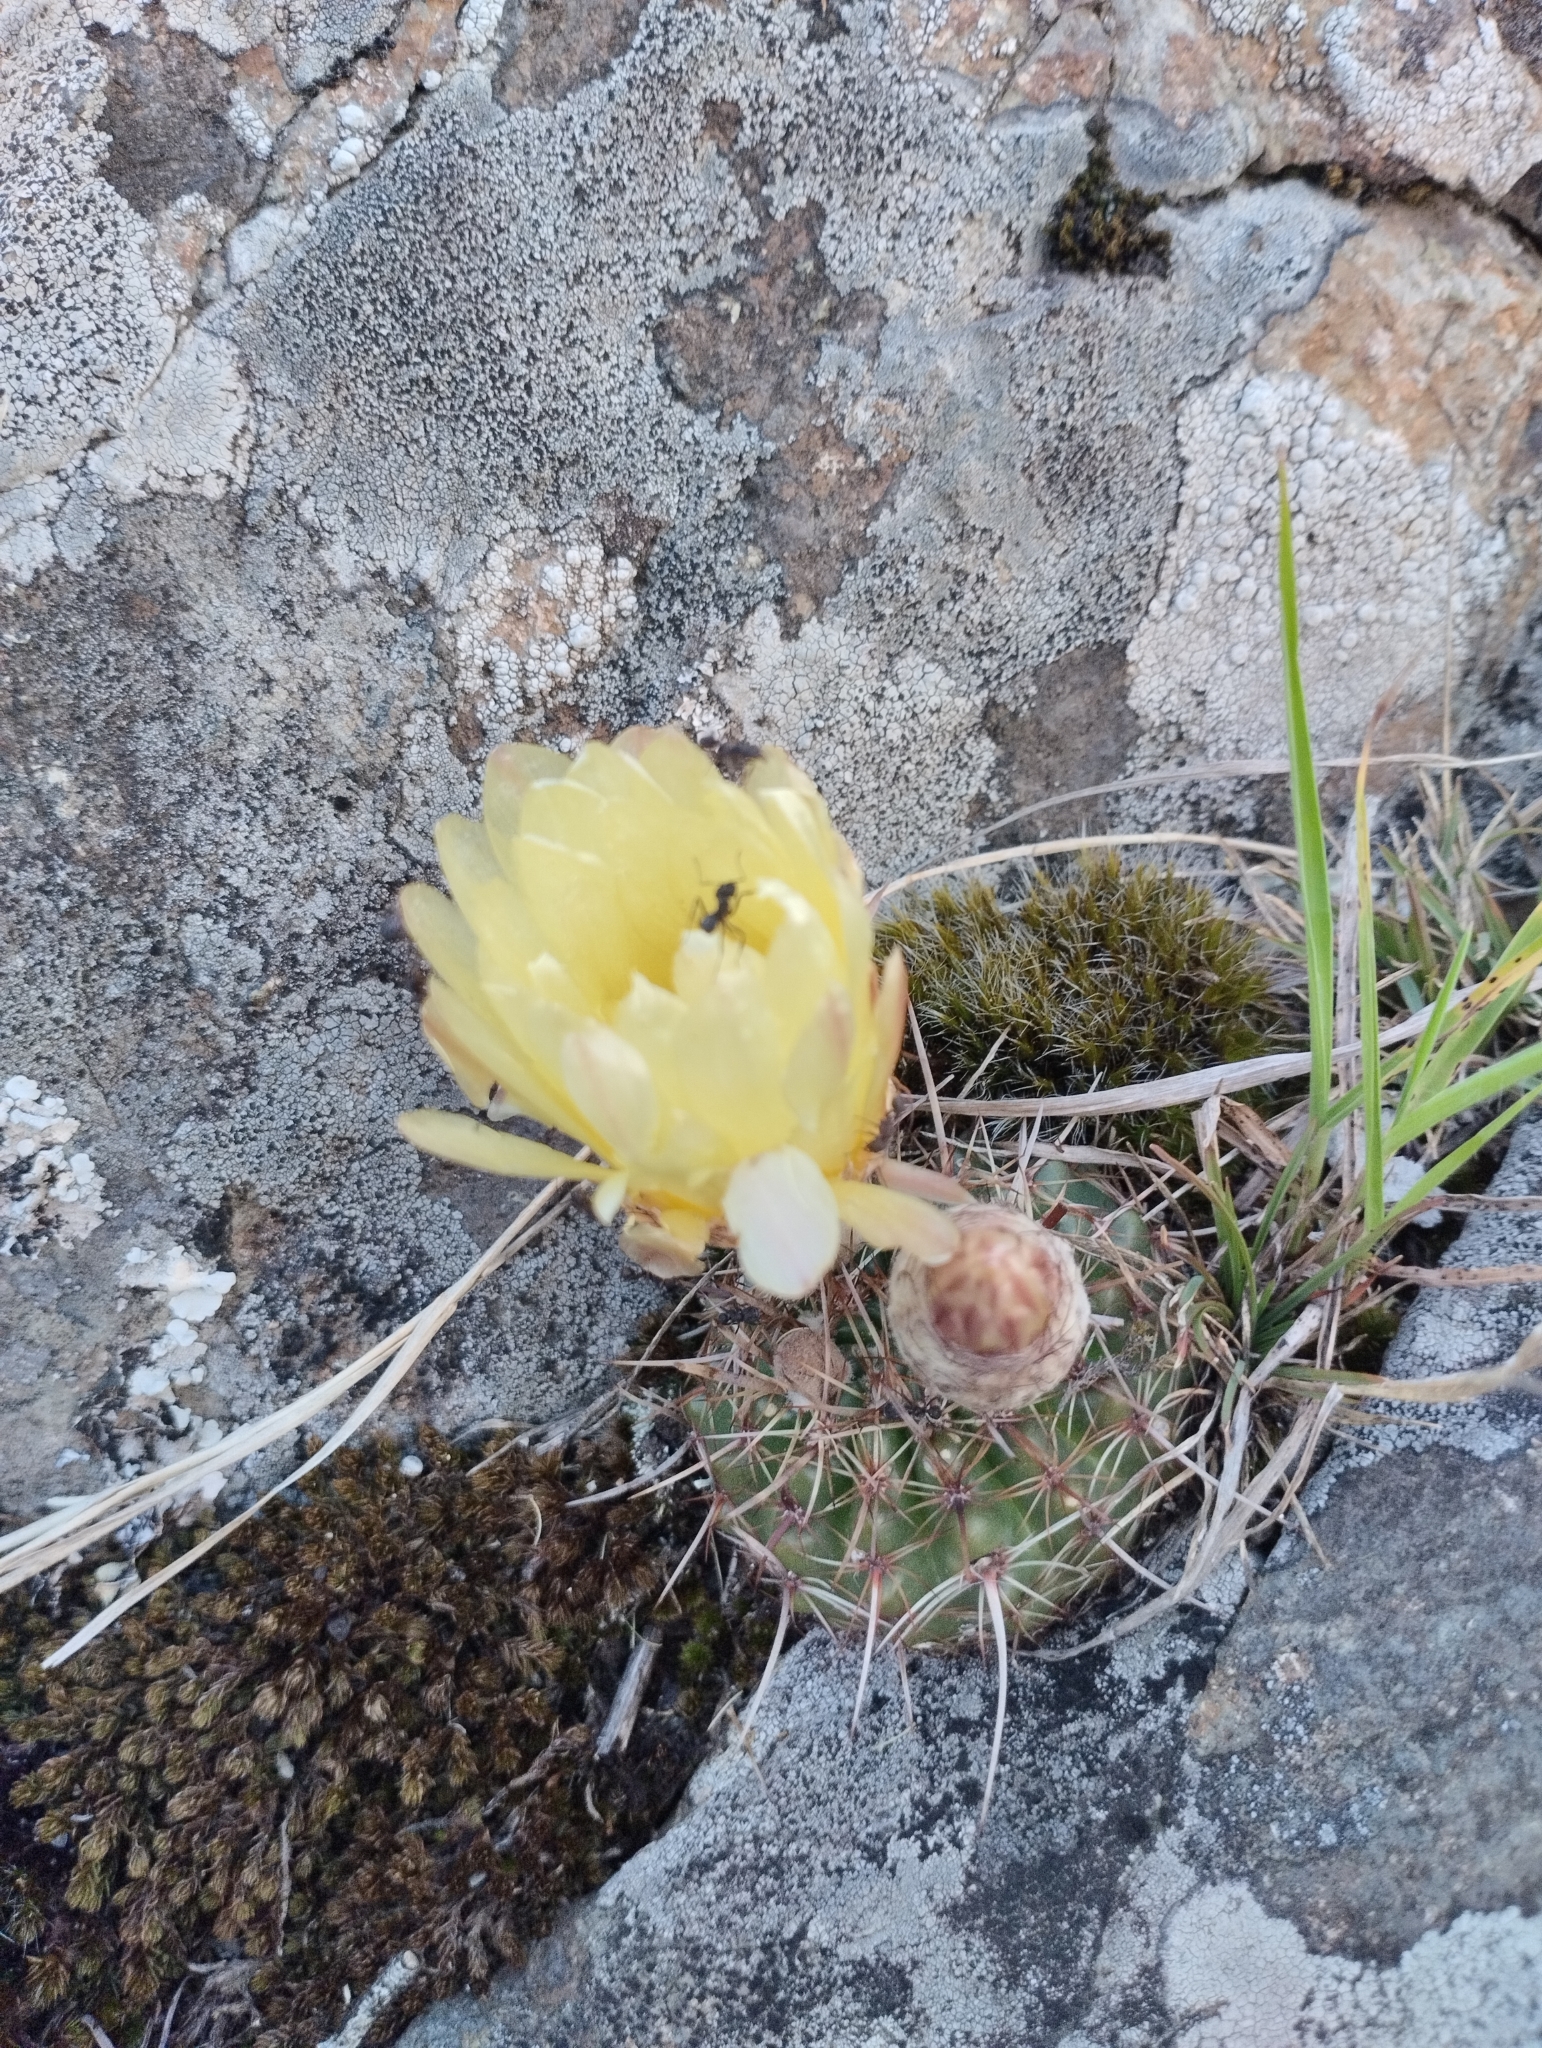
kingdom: Plantae
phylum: Tracheophyta
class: Magnoliopsida
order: Caryophyllales
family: Cactaceae
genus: Parodia
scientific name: Parodia mammulosa
